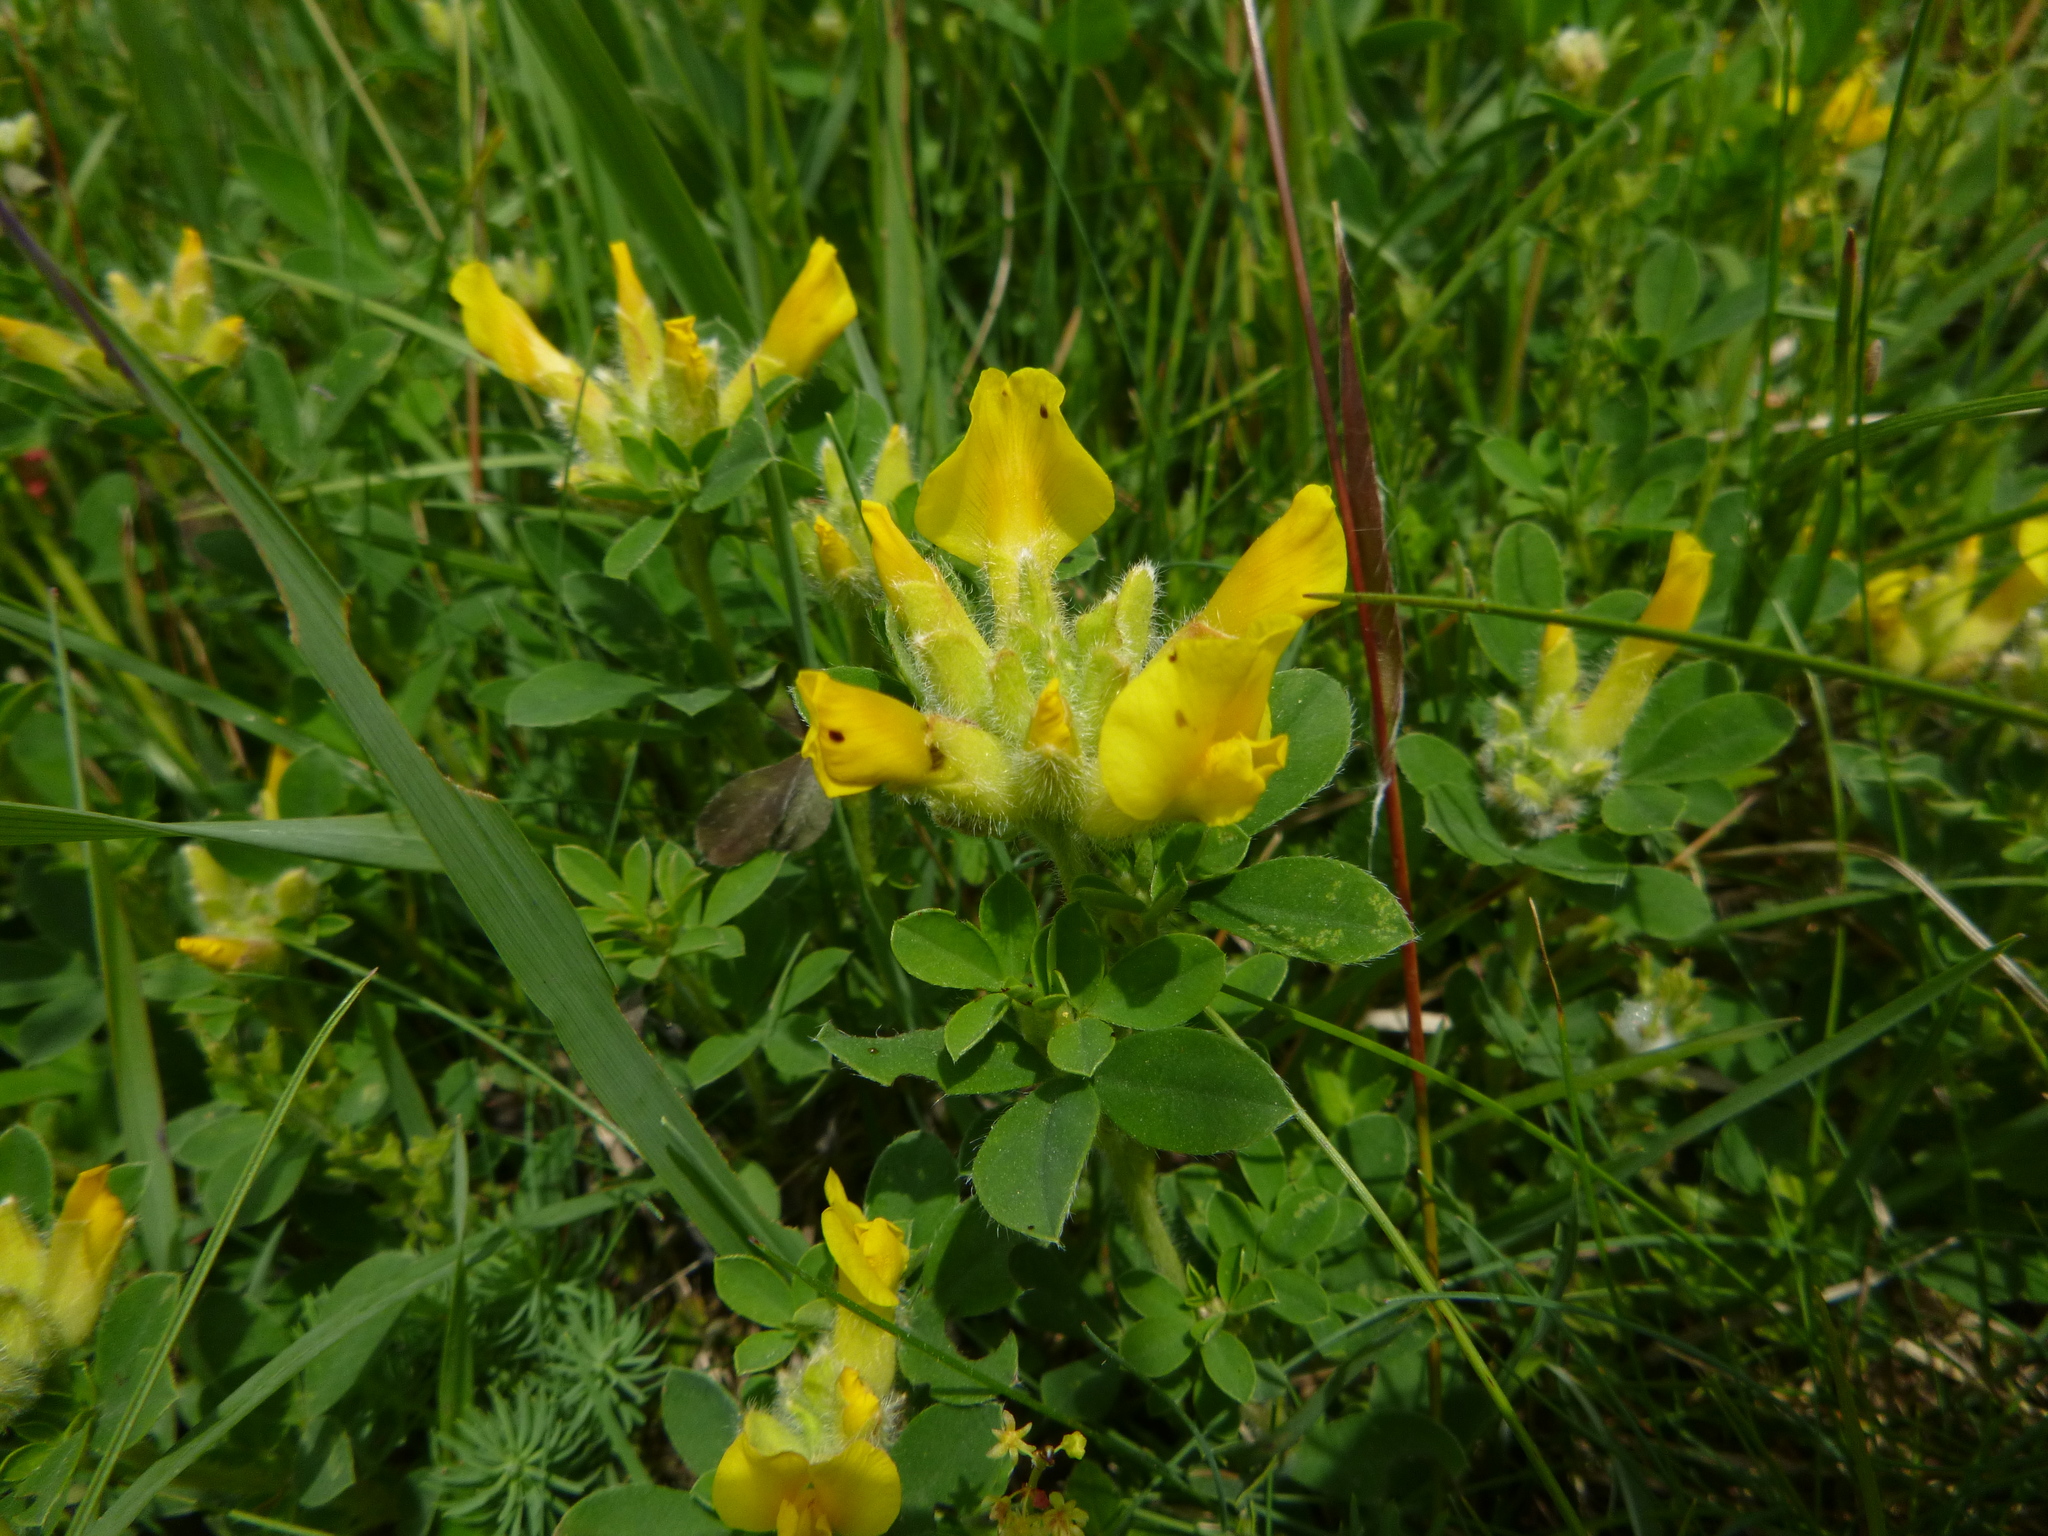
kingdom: Plantae
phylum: Tracheophyta
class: Magnoliopsida
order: Fabales
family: Fabaceae
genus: Chamaecytisus
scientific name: Chamaecytisus supinus
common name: Clustered broom
